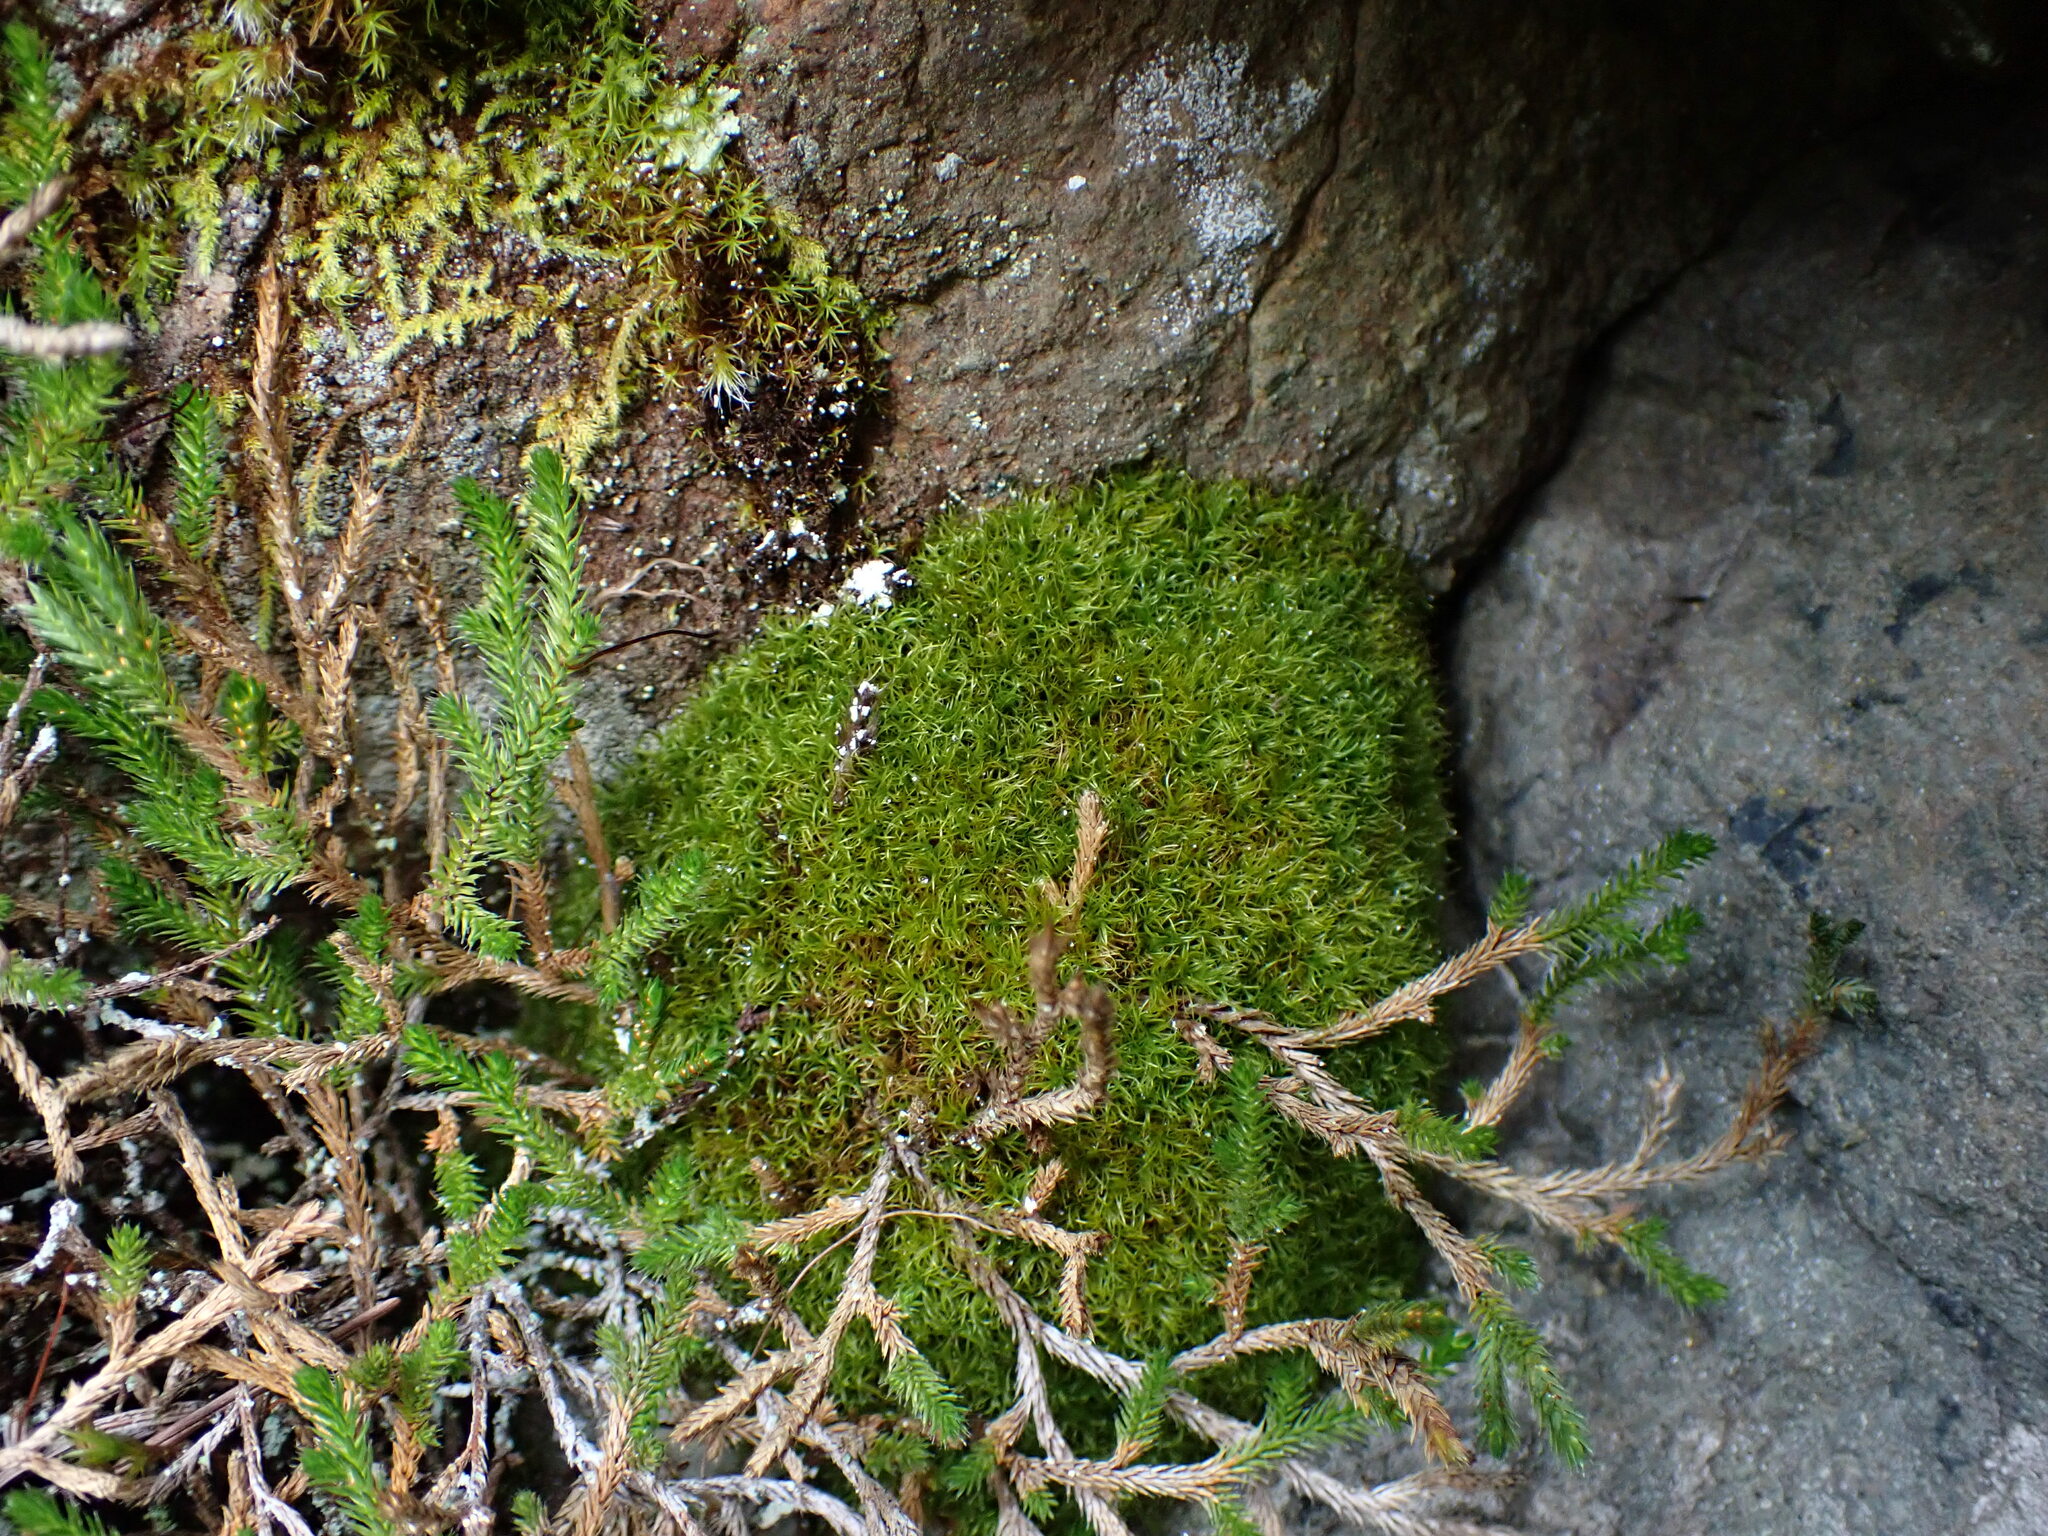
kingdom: Plantae
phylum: Bryophyta
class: Bryopsida
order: Dicranales
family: Amphidiaceae
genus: Amphidium
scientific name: Amphidium californicum
